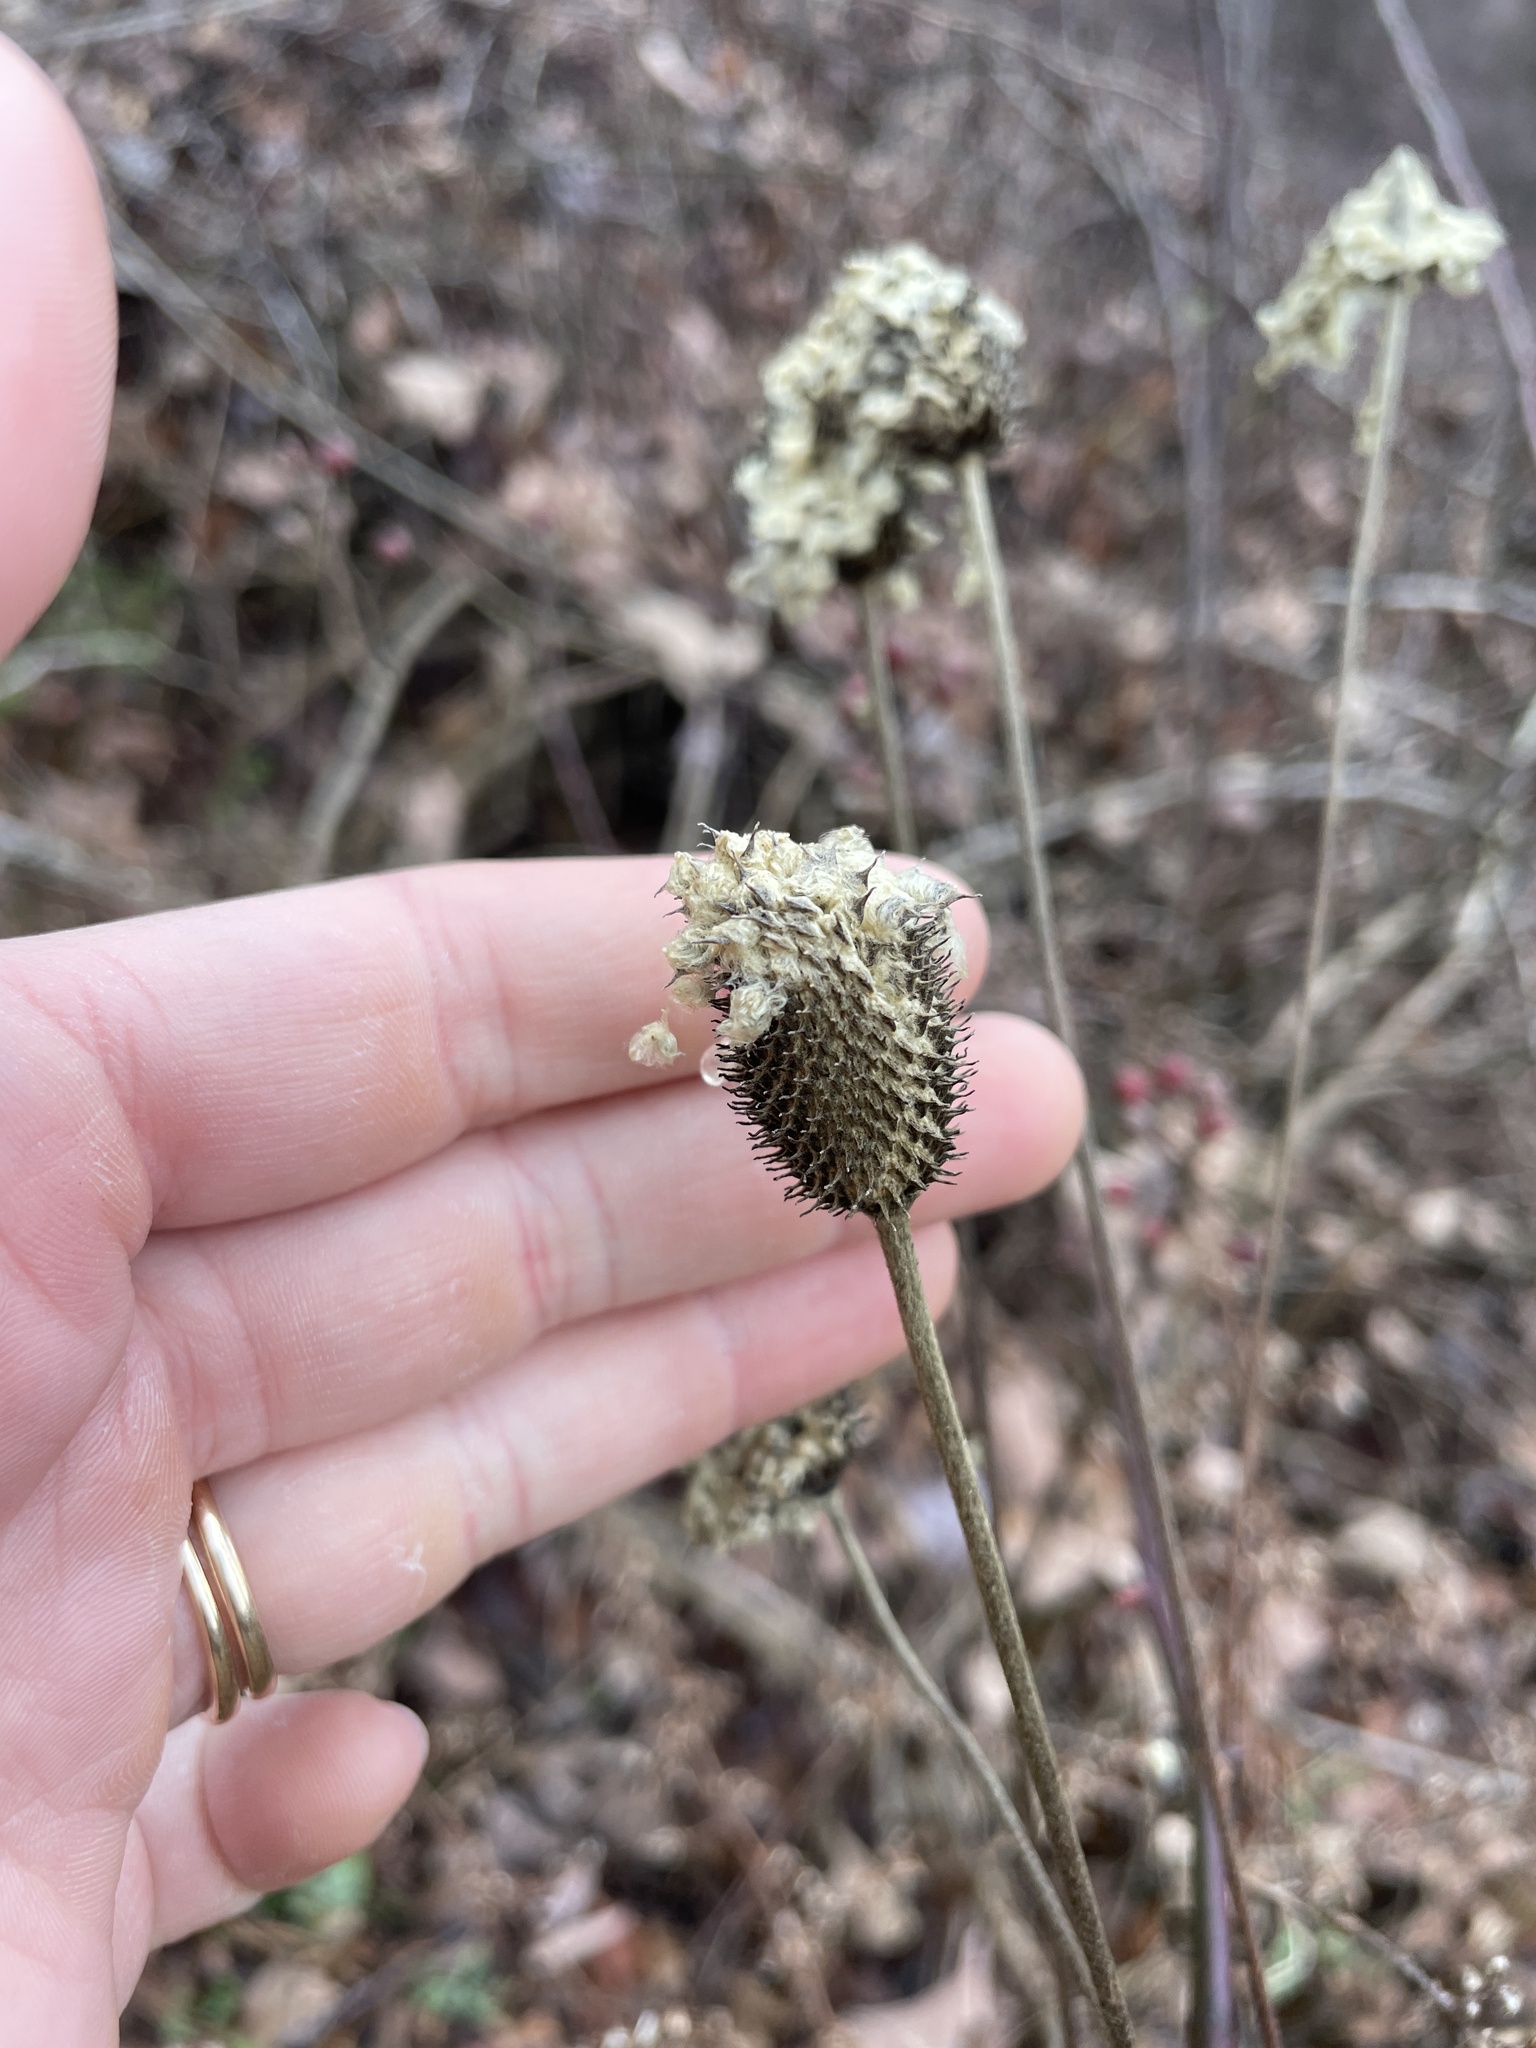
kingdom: Plantae
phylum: Tracheophyta
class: Magnoliopsida
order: Ranunculales
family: Ranunculaceae
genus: Anemone
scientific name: Anemone virginiana
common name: Tall anemone
